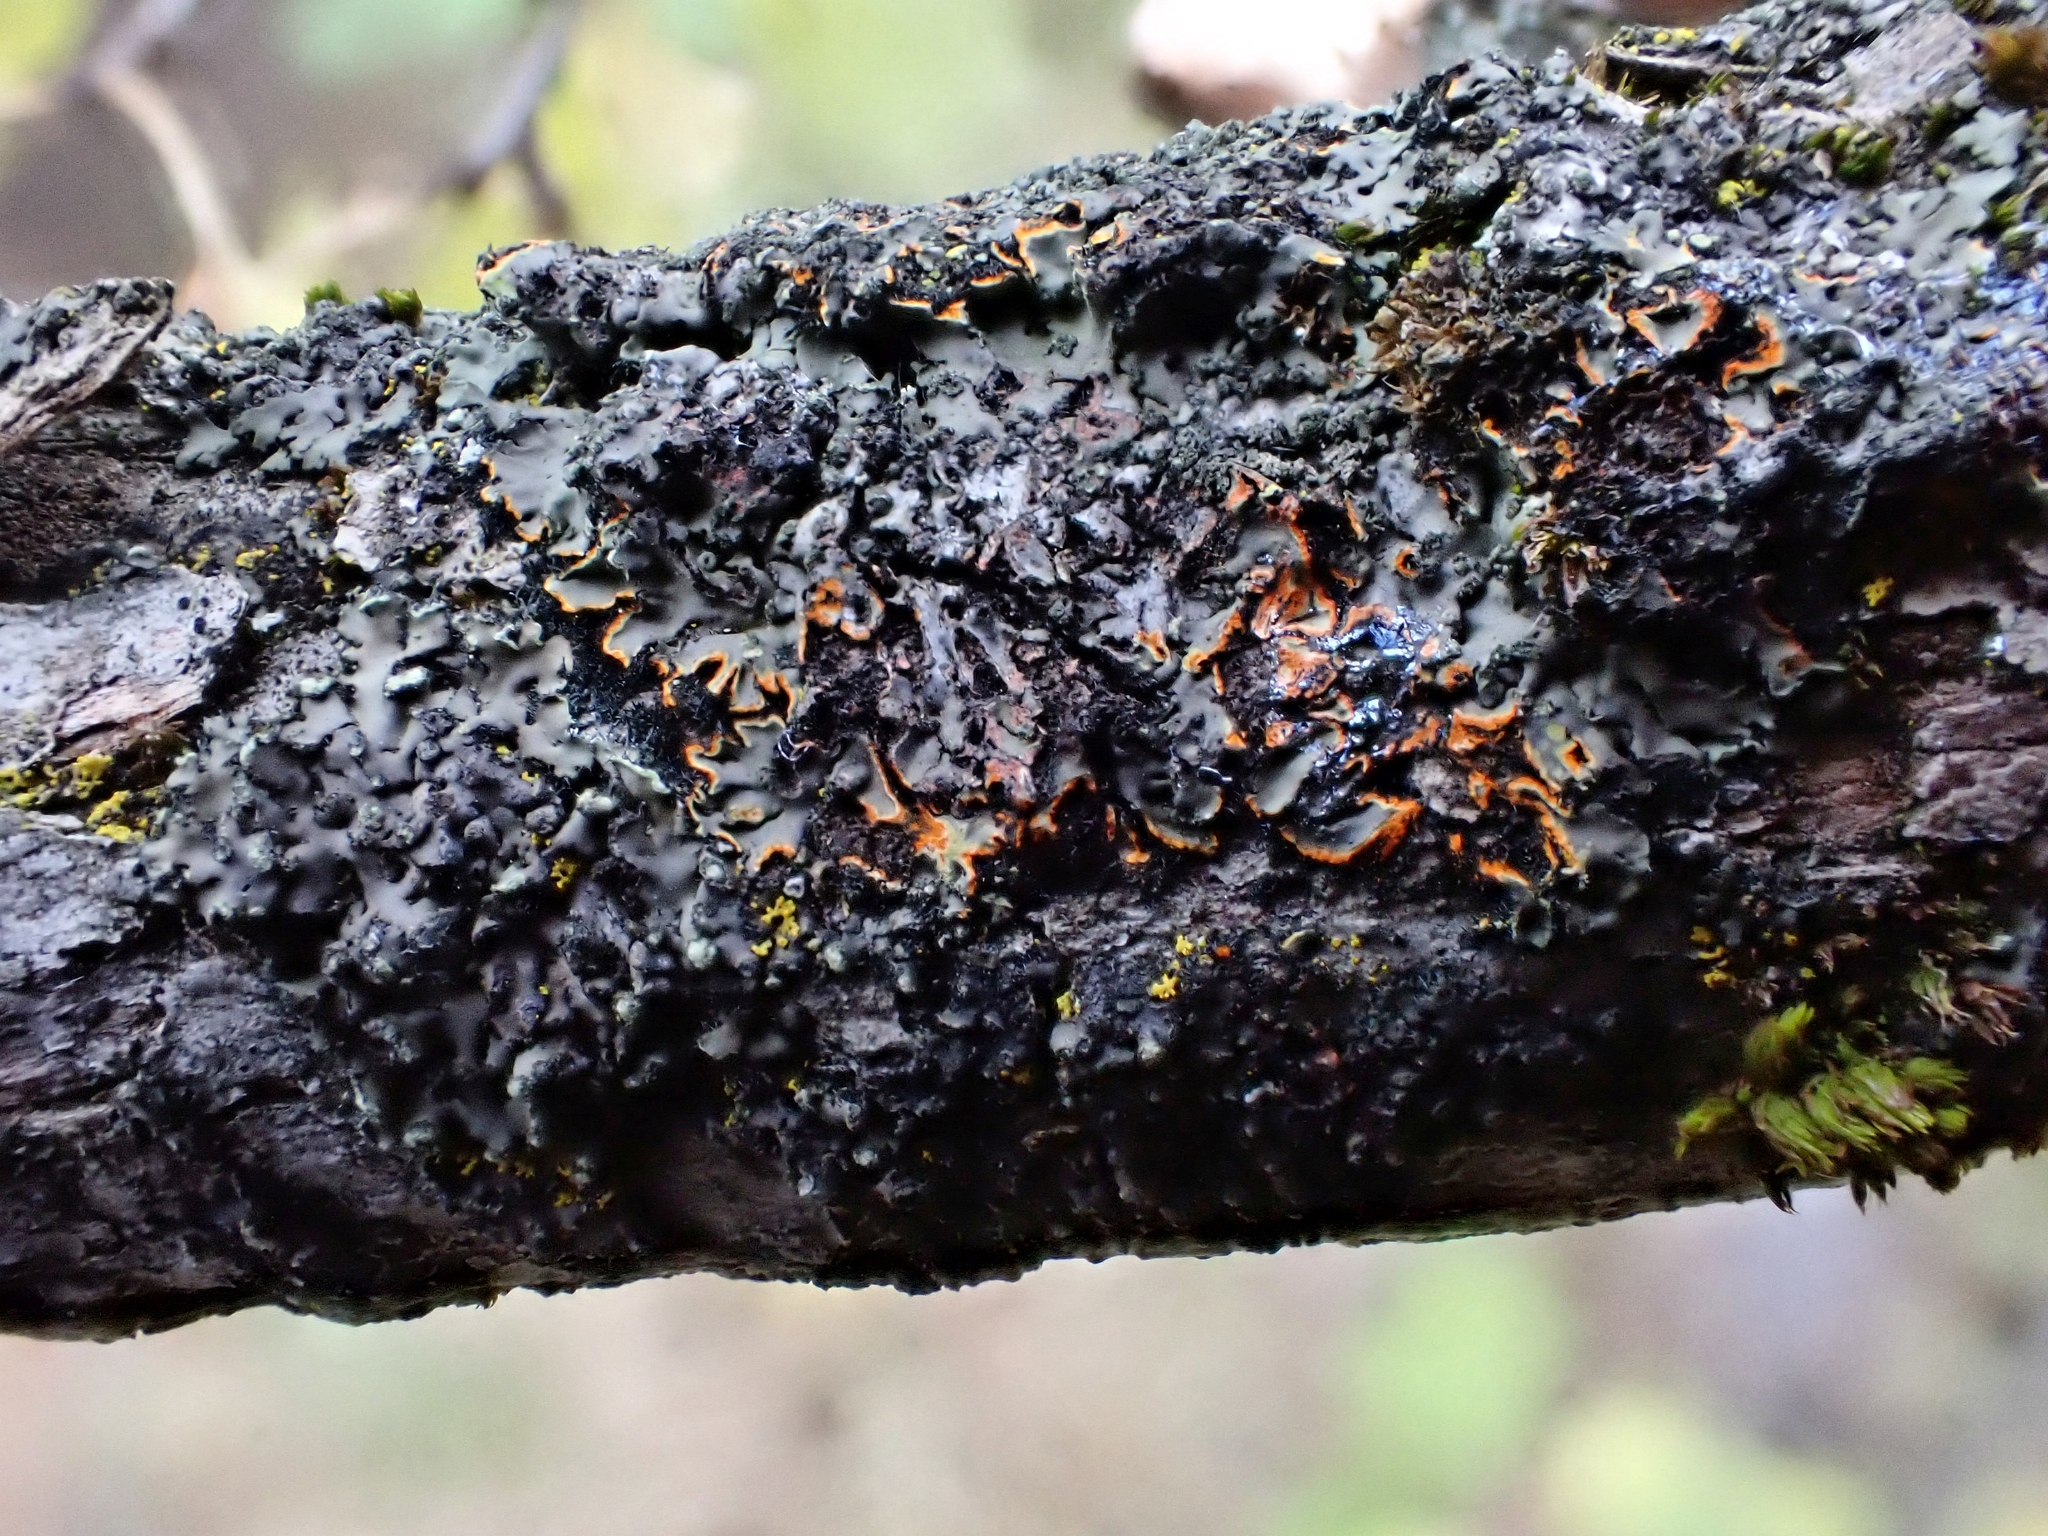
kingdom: Fungi
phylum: Ascomycota
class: Lecanoromycetes
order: Caliciales
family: Physciaceae
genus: Phaeophyscia
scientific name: Phaeophyscia rubropulchra
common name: Orange-cored shadow lichen
